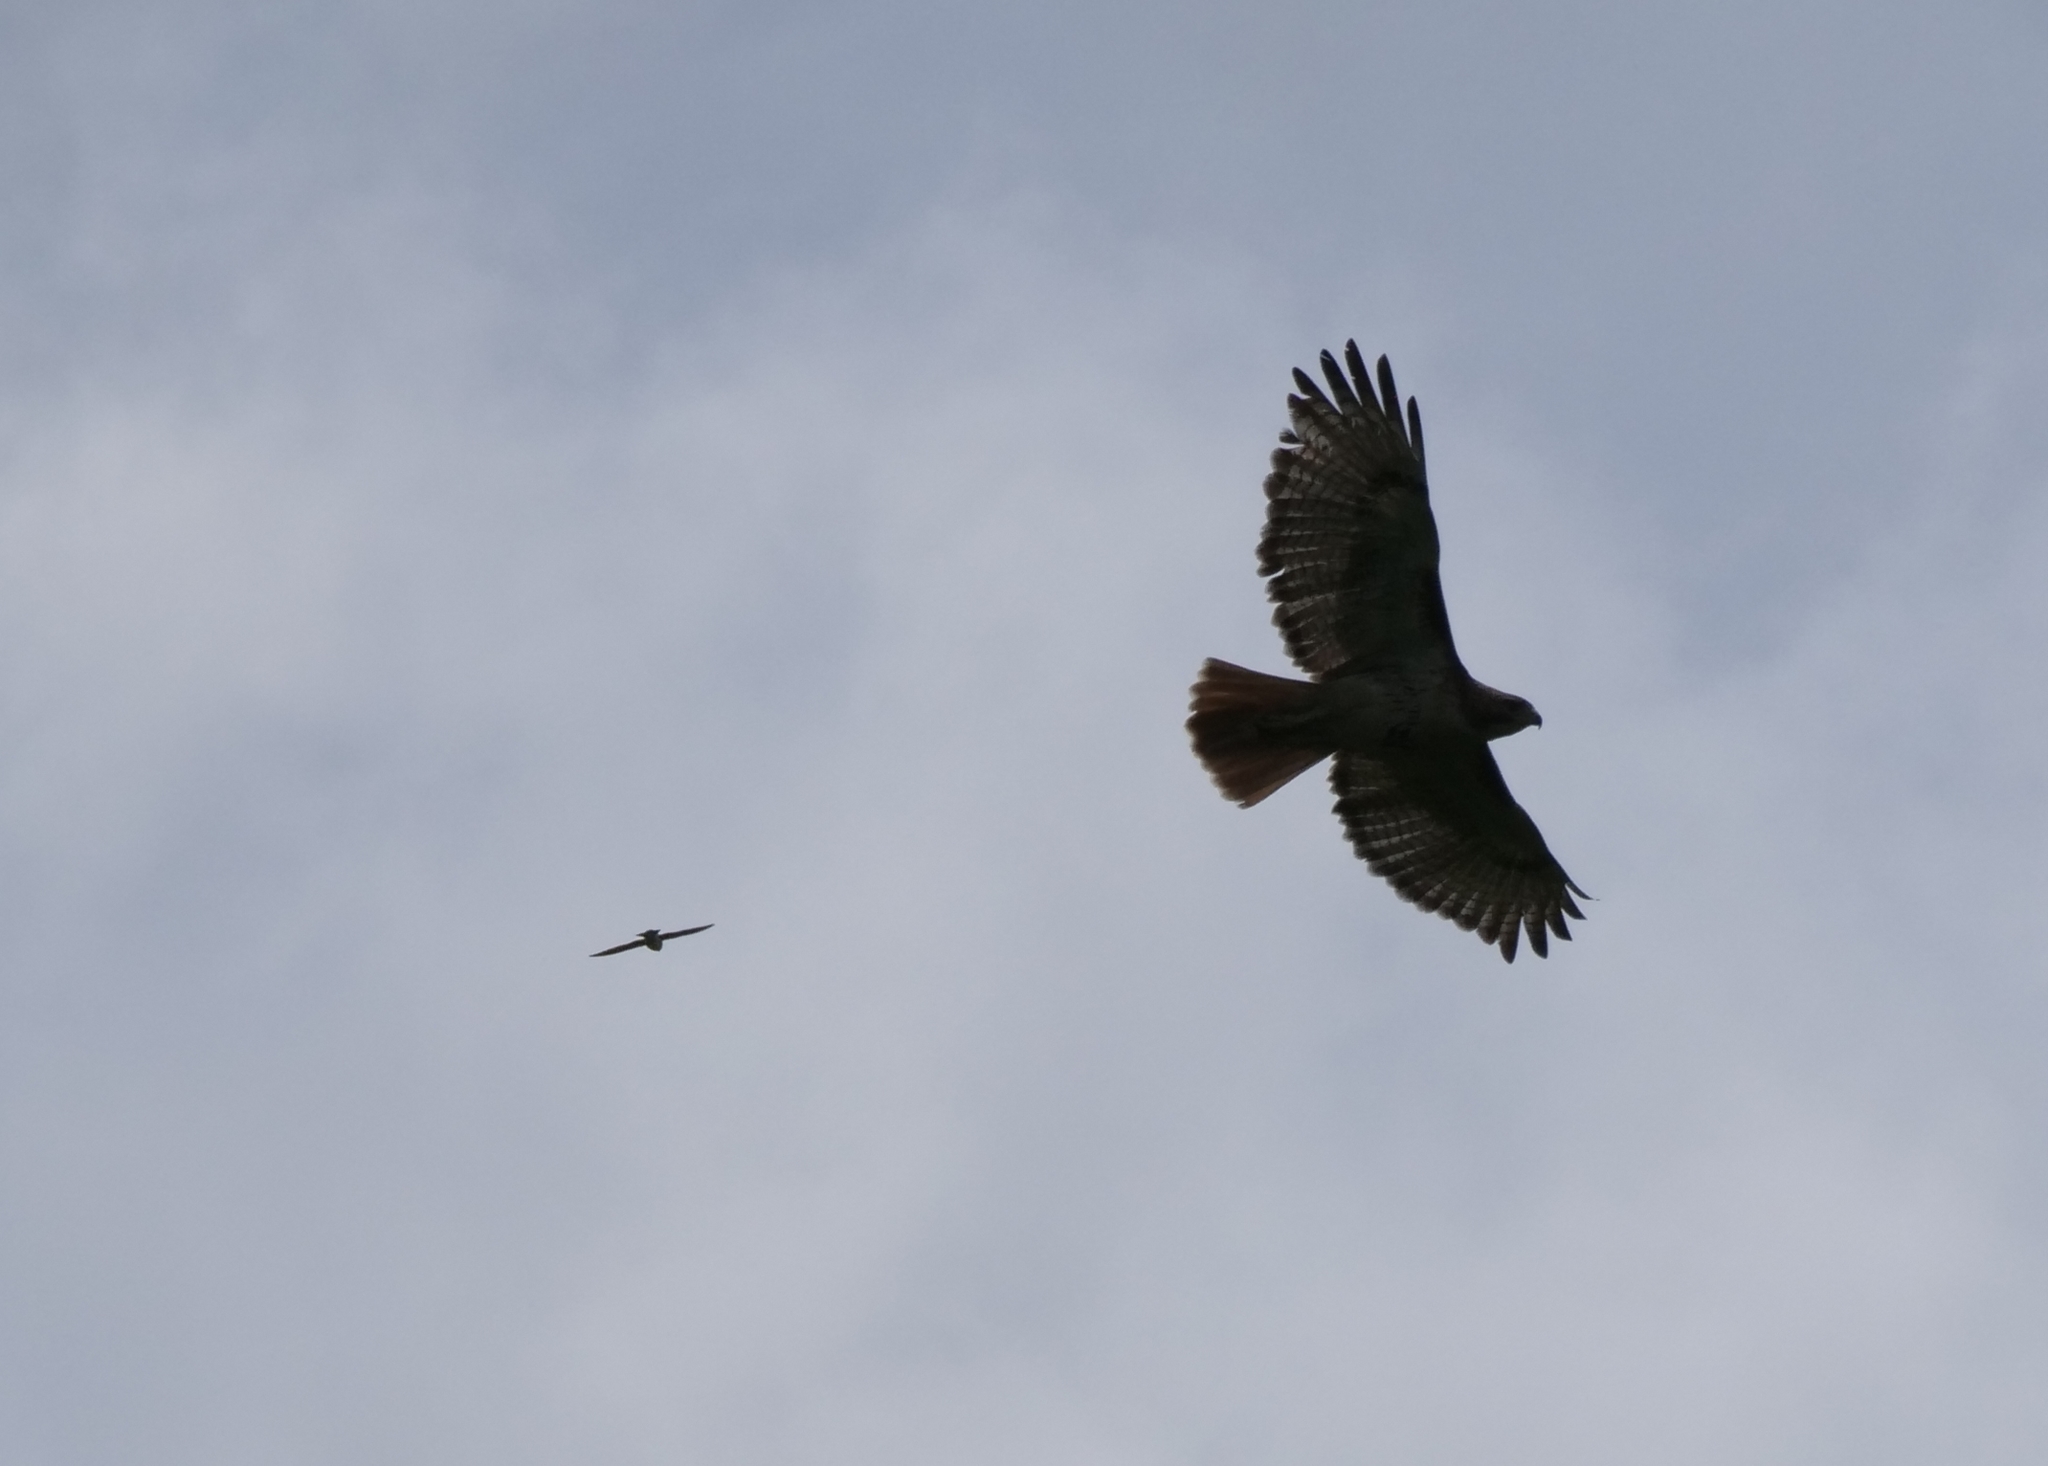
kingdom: Animalia
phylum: Chordata
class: Aves
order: Accipitriformes
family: Accipitridae
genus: Buteo
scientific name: Buteo jamaicensis
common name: Red-tailed hawk
